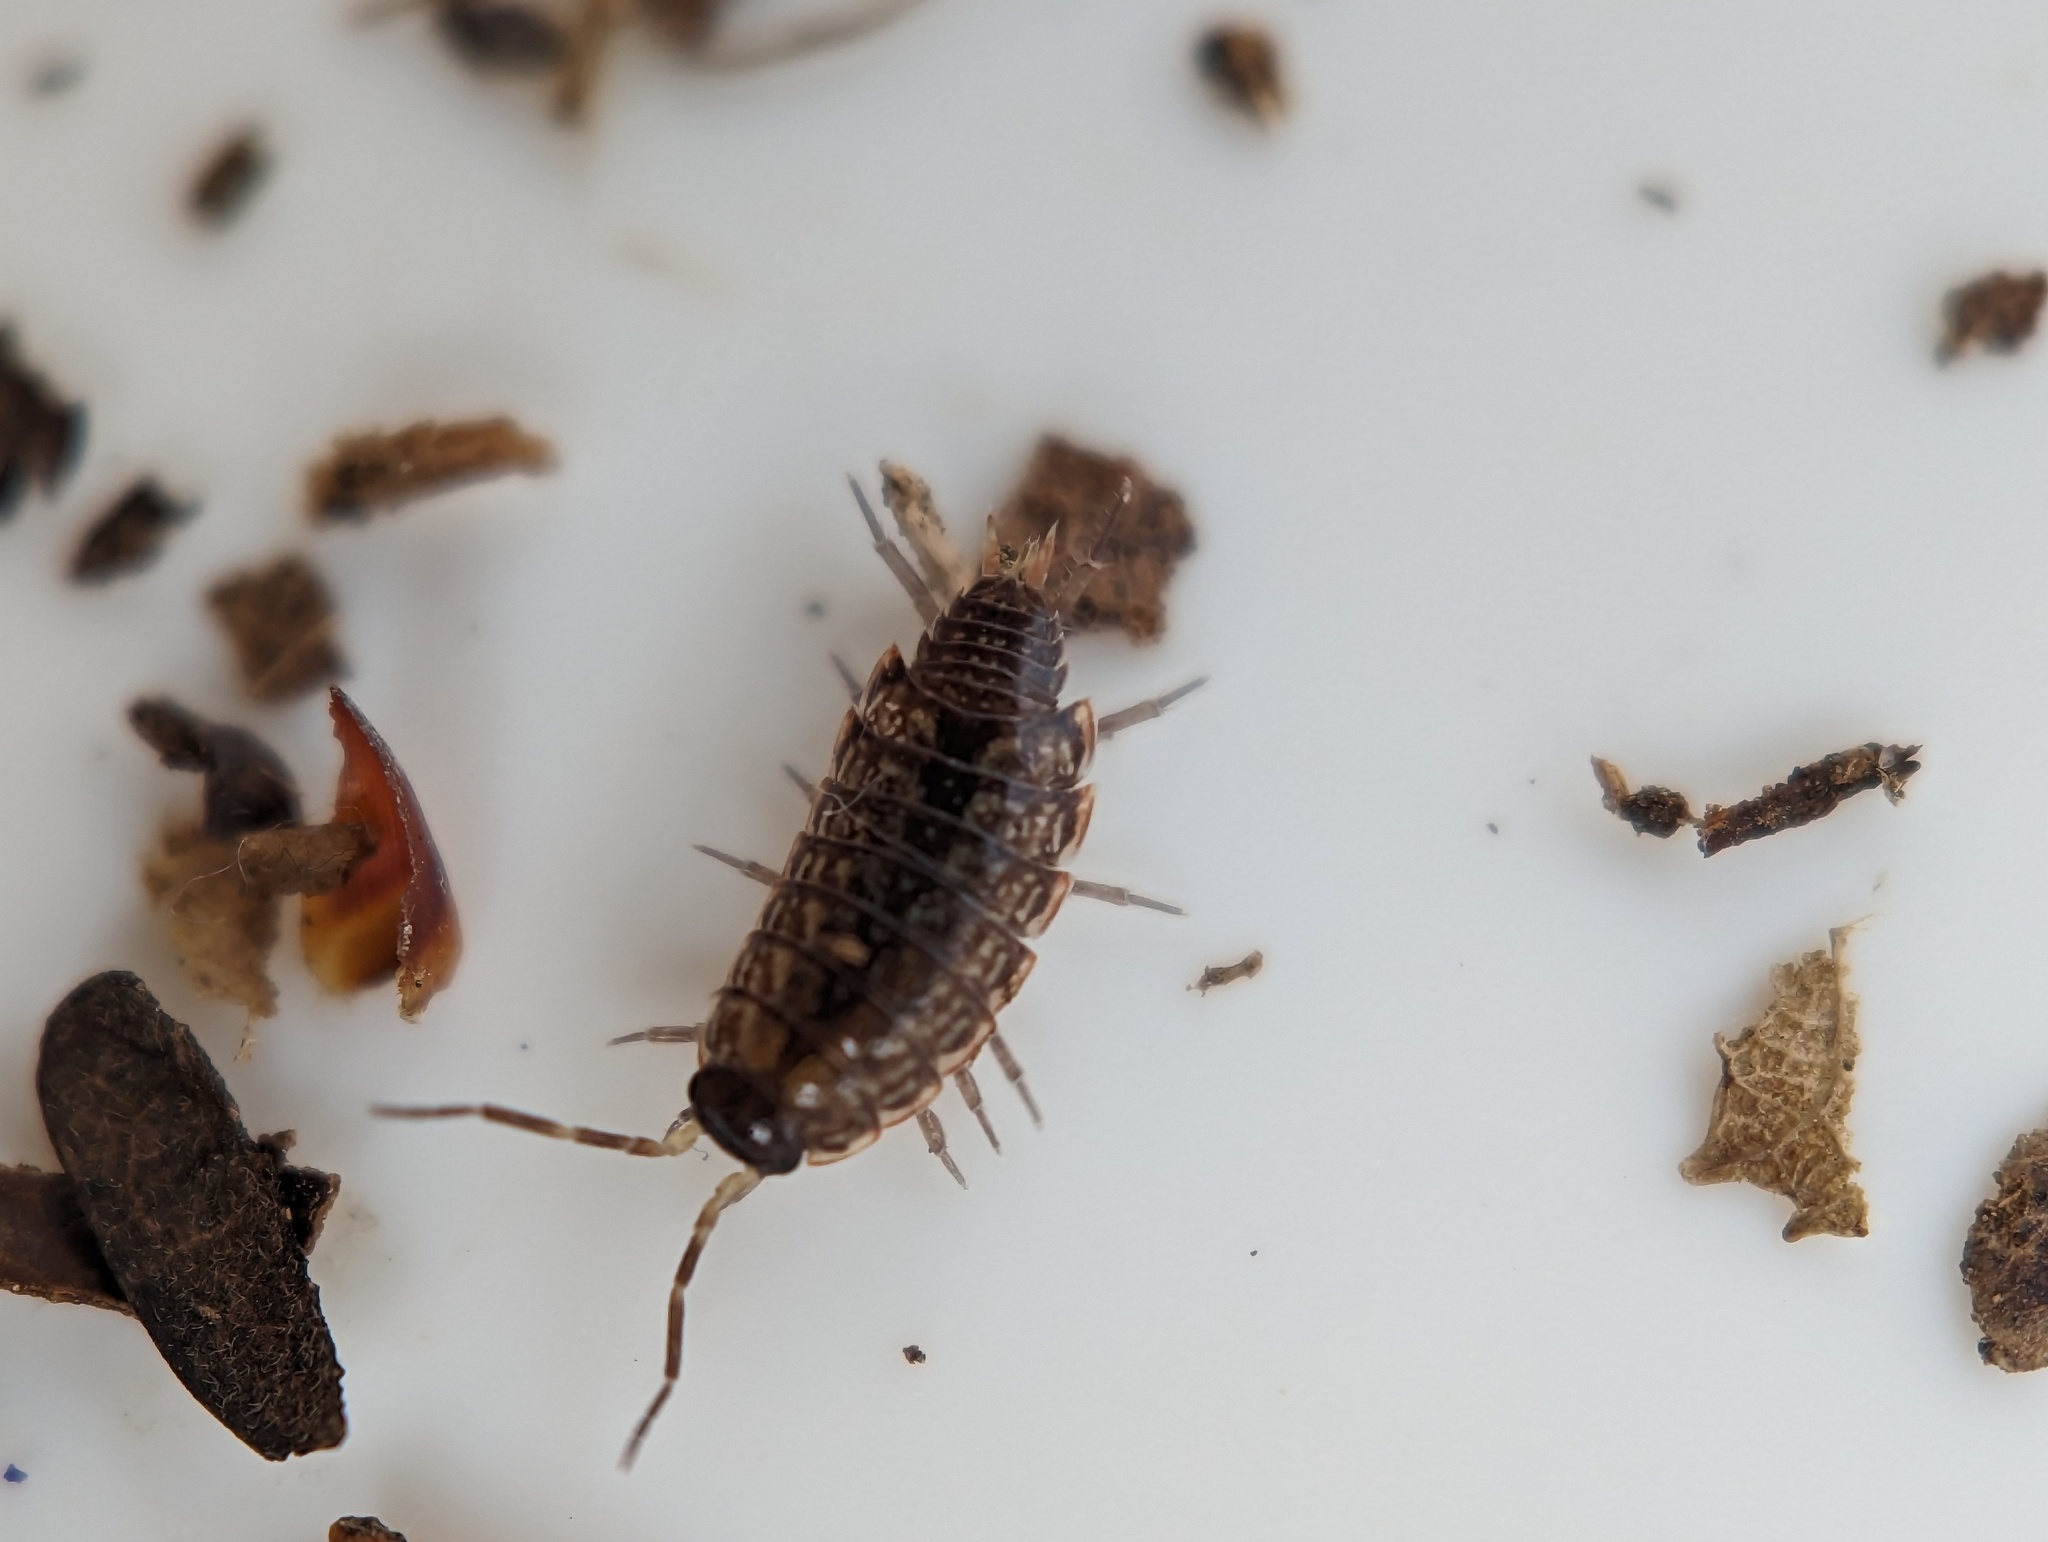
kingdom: Animalia
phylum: Arthropoda
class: Malacostraca
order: Isopoda
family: Philosciidae
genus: Philoscia
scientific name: Philoscia muscorum
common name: Common striped woodlouse
